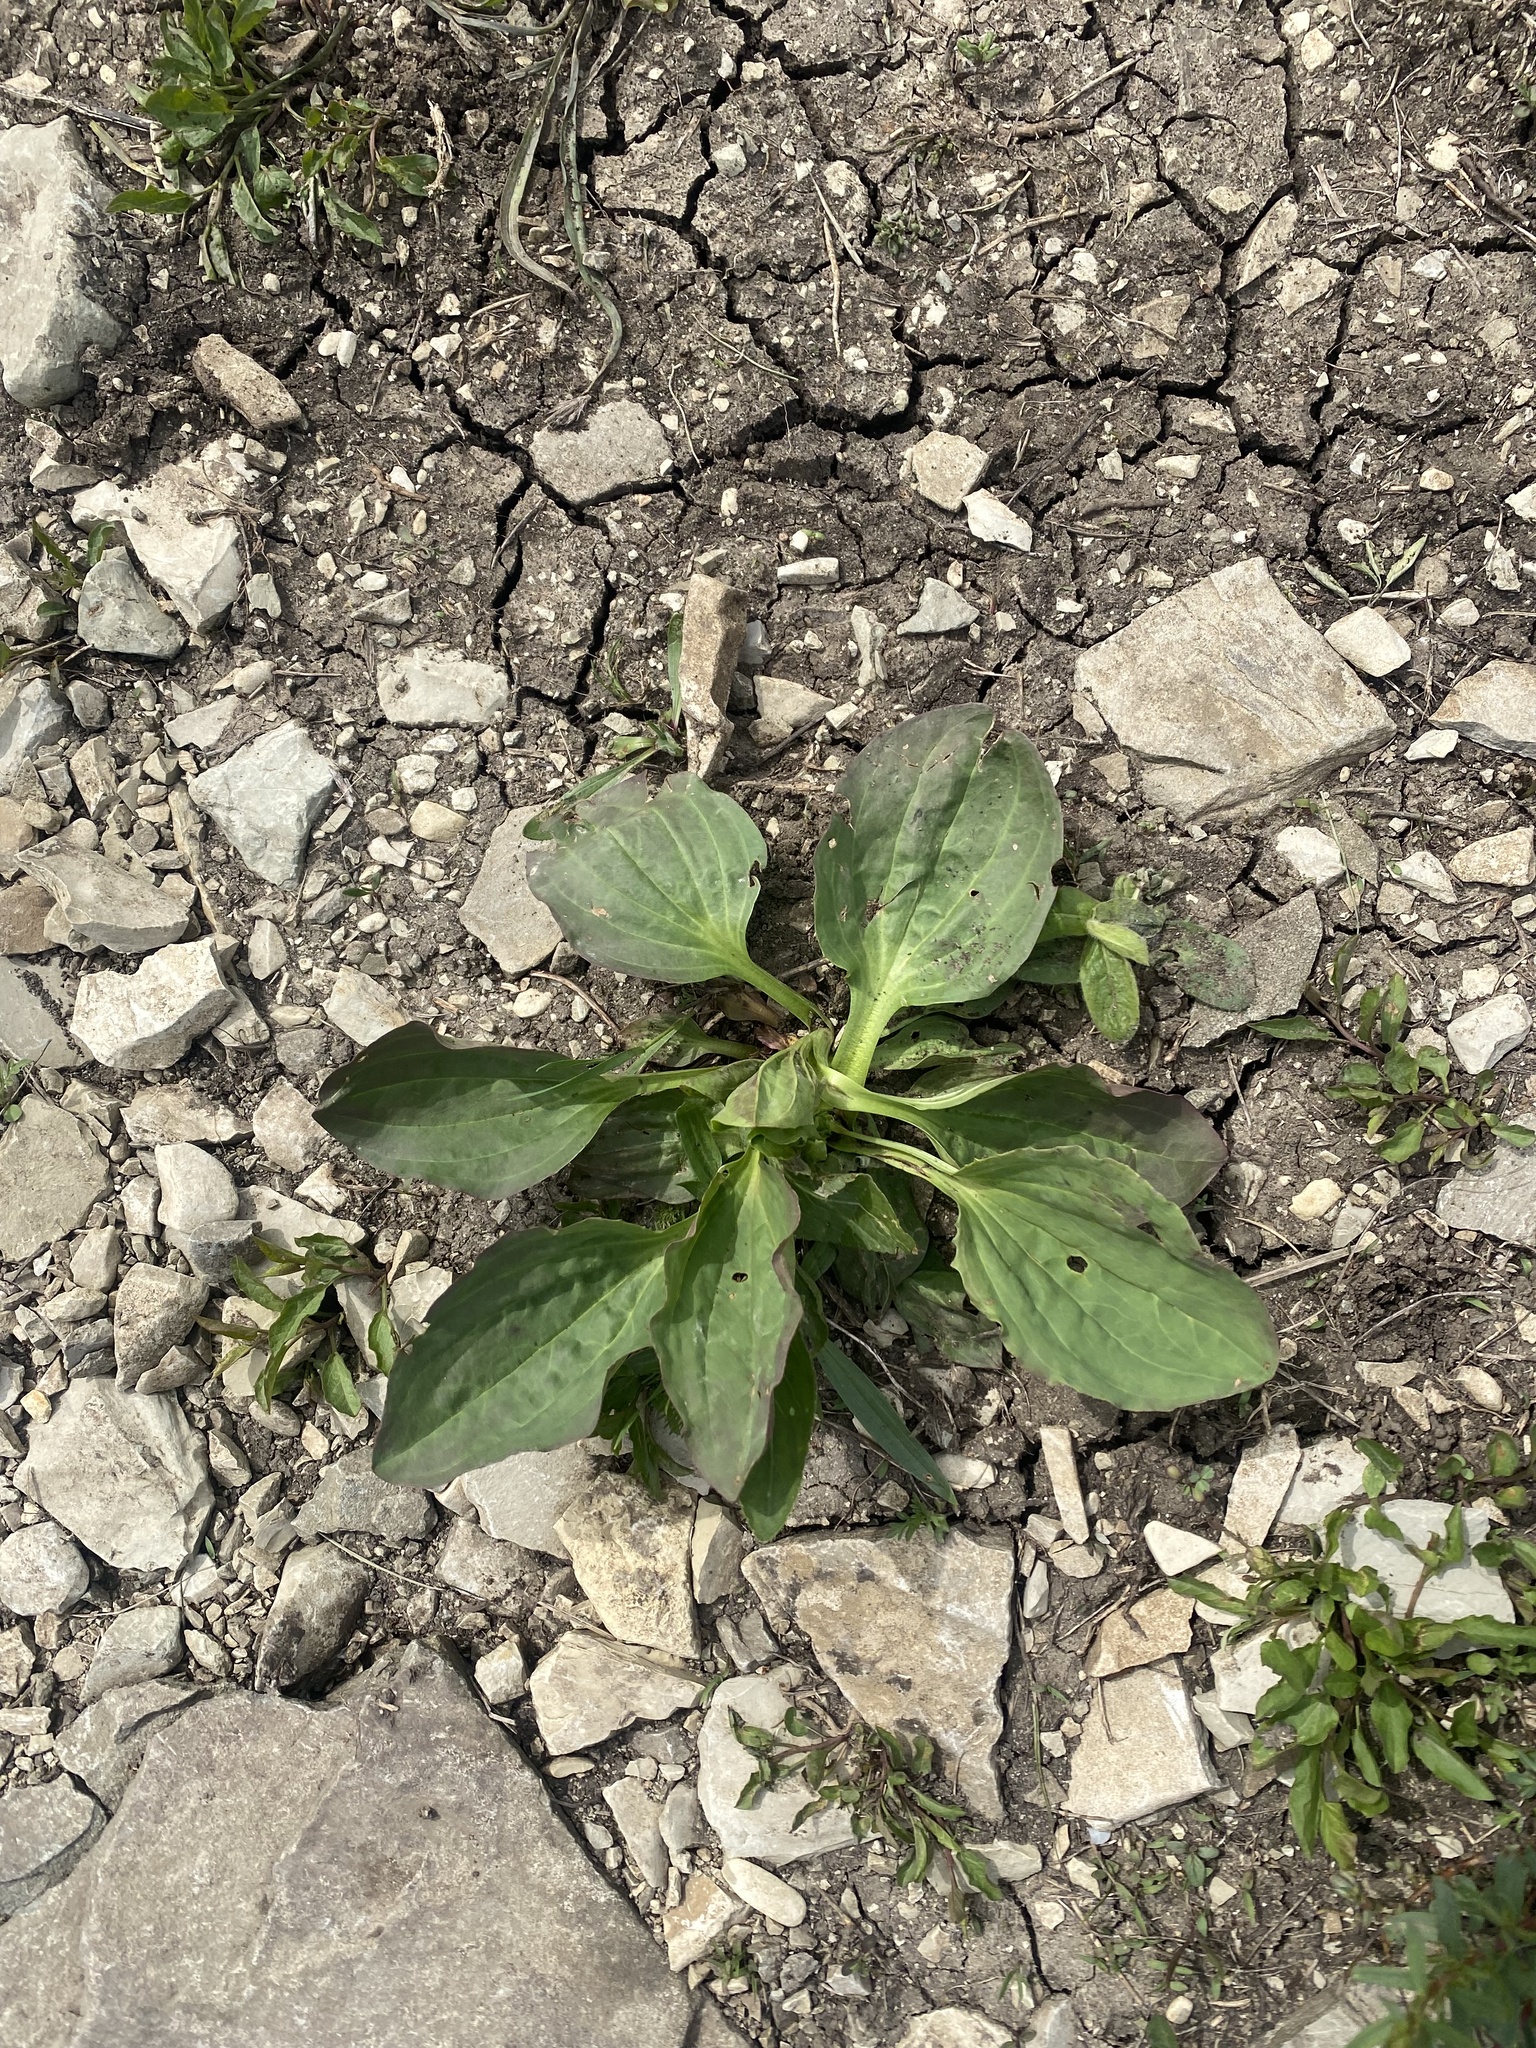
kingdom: Plantae
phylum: Tracheophyta
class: Magnoliopsida
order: Lamiales
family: Plantaginaceae
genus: Plantago
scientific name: Plantago major
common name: Common plantain
